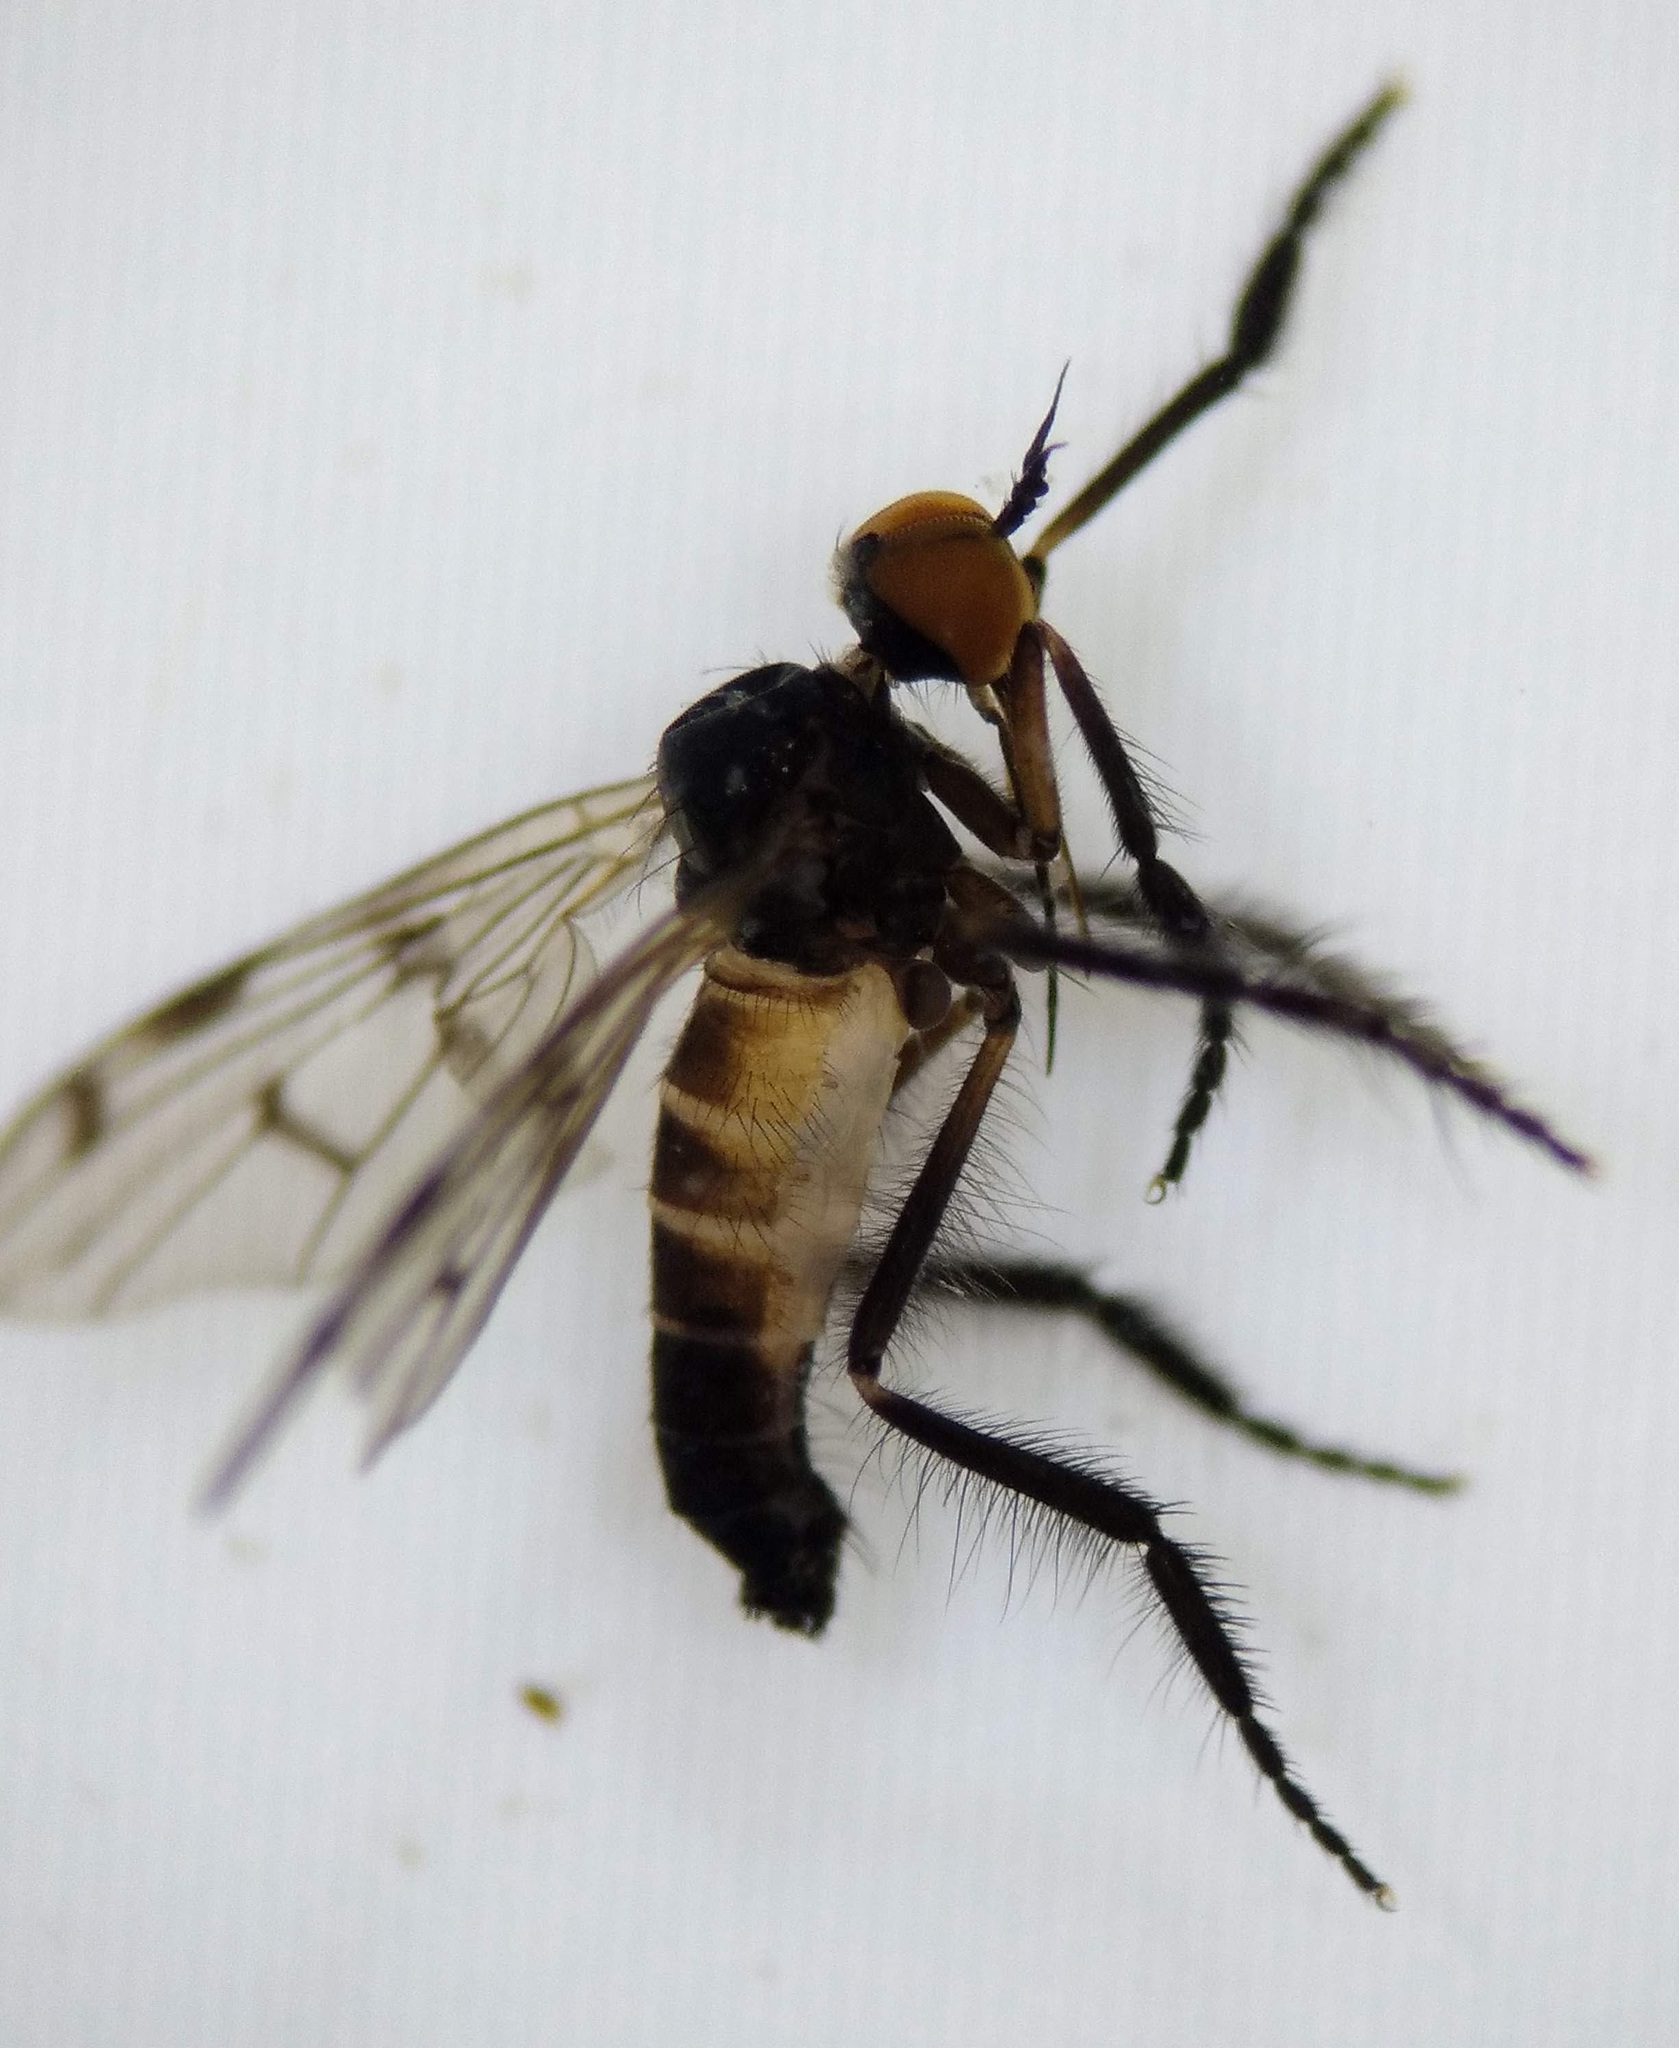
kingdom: Animalia
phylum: Arthropoda
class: Insecta
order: Diptera
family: Empididae
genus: Empis
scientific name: Empis clausa
